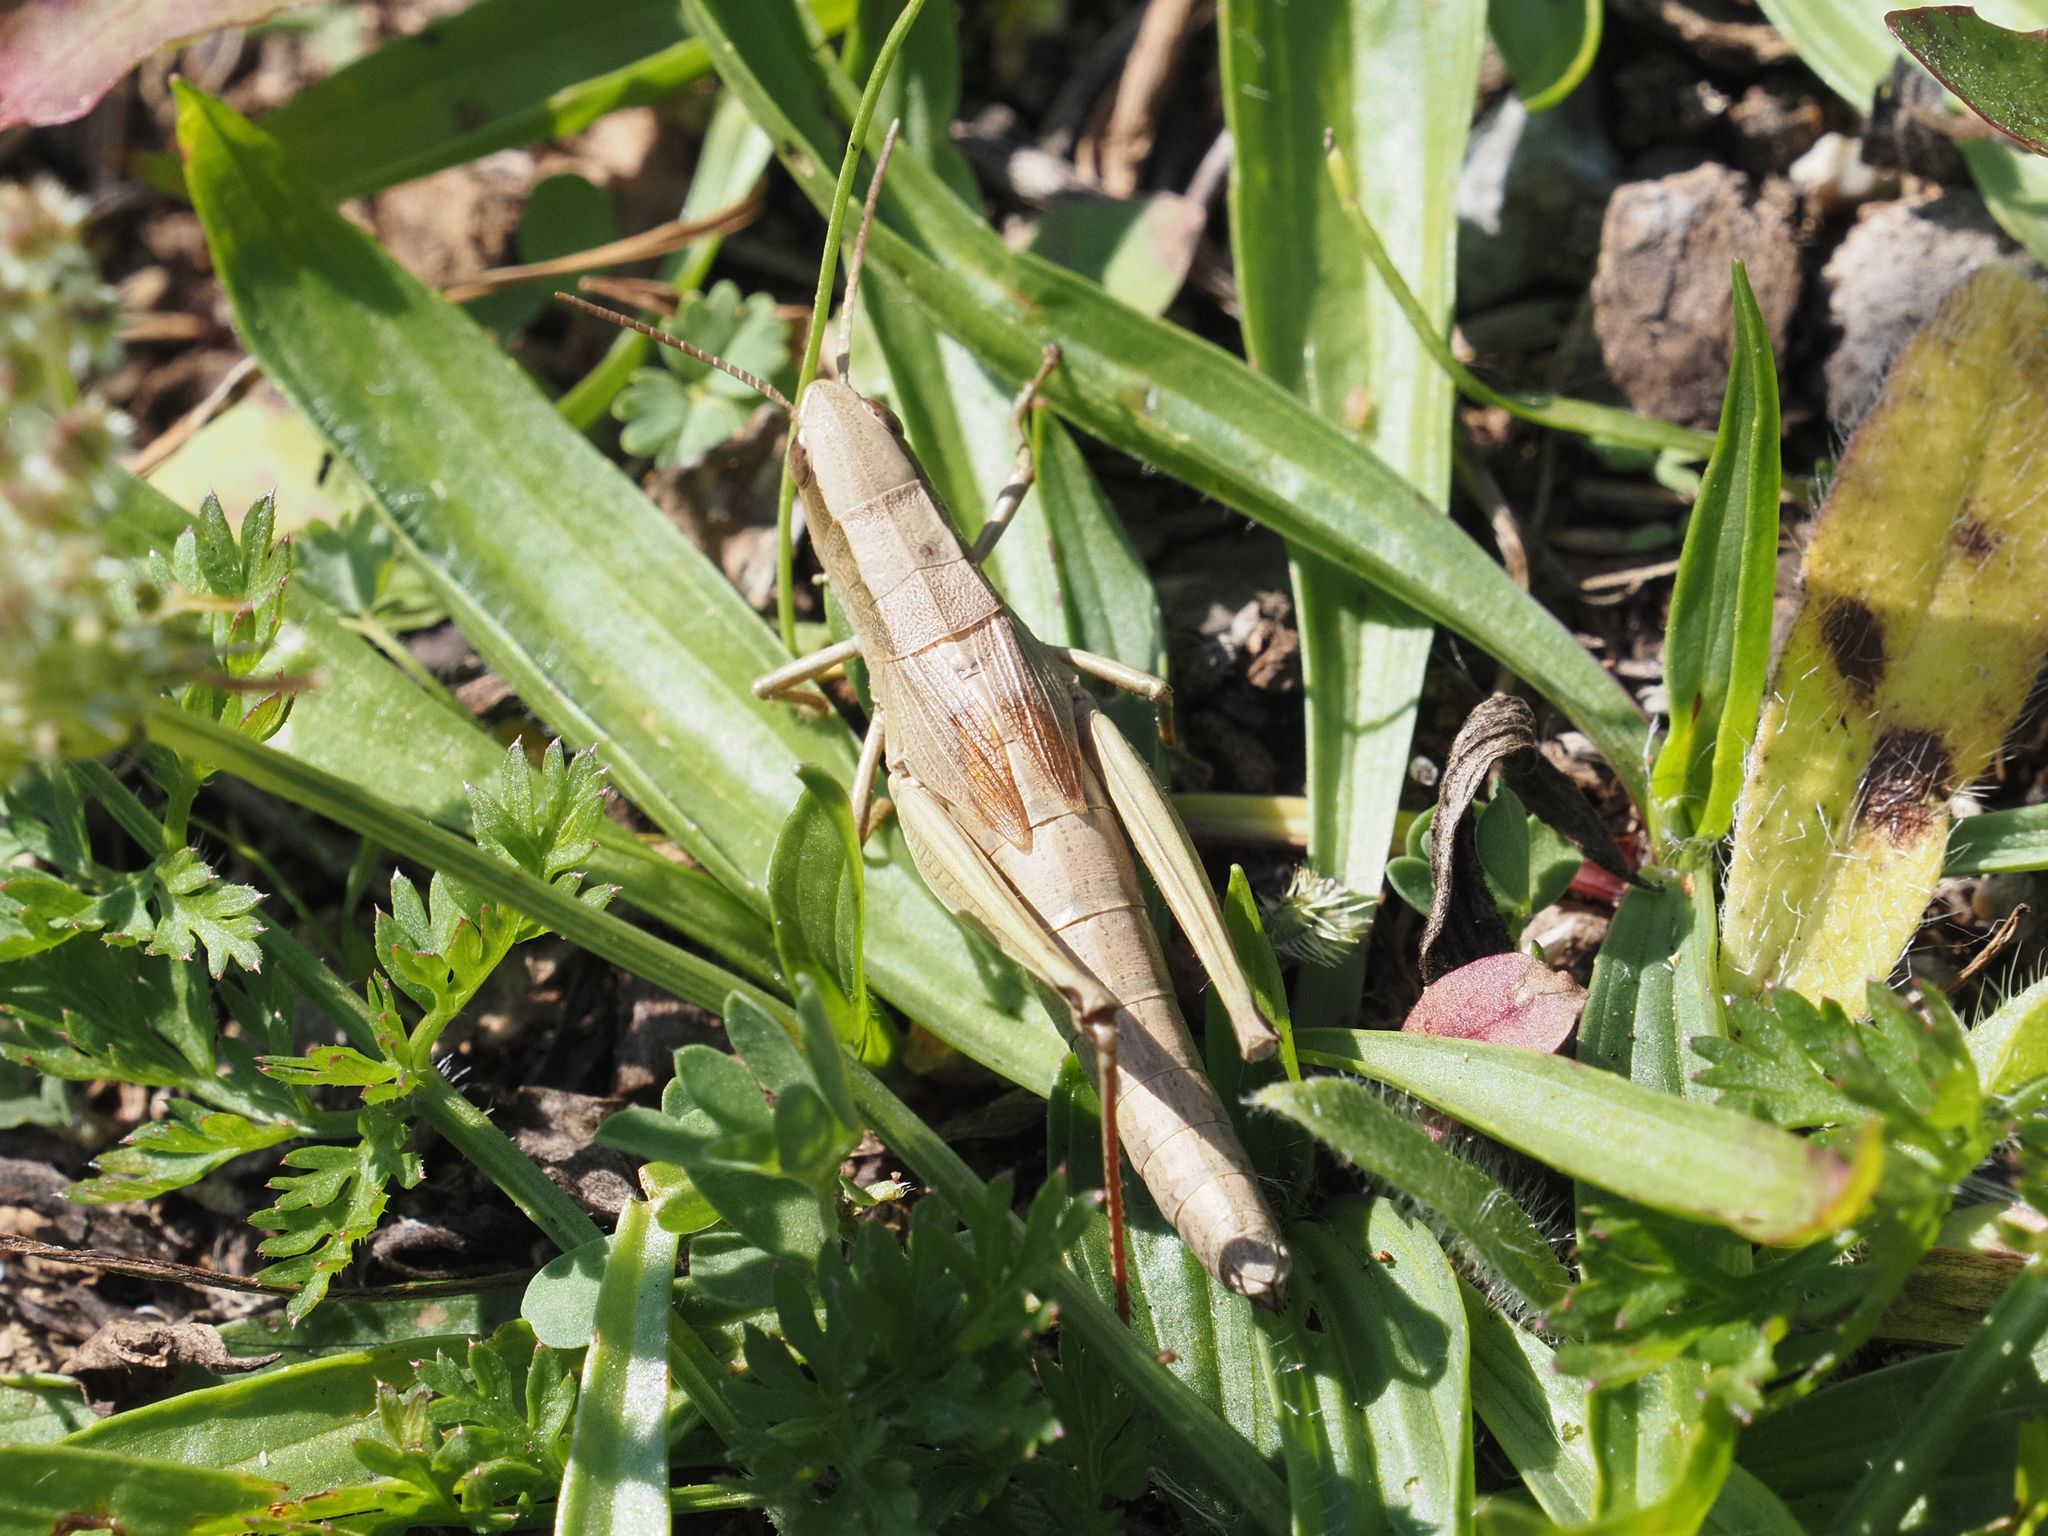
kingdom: Animalia
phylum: Arthropoda
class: Insecta
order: Orthoptera
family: Acrididae
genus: Chrysochraon
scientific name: Chrysochraon dispar
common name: Large gold grasshopper
